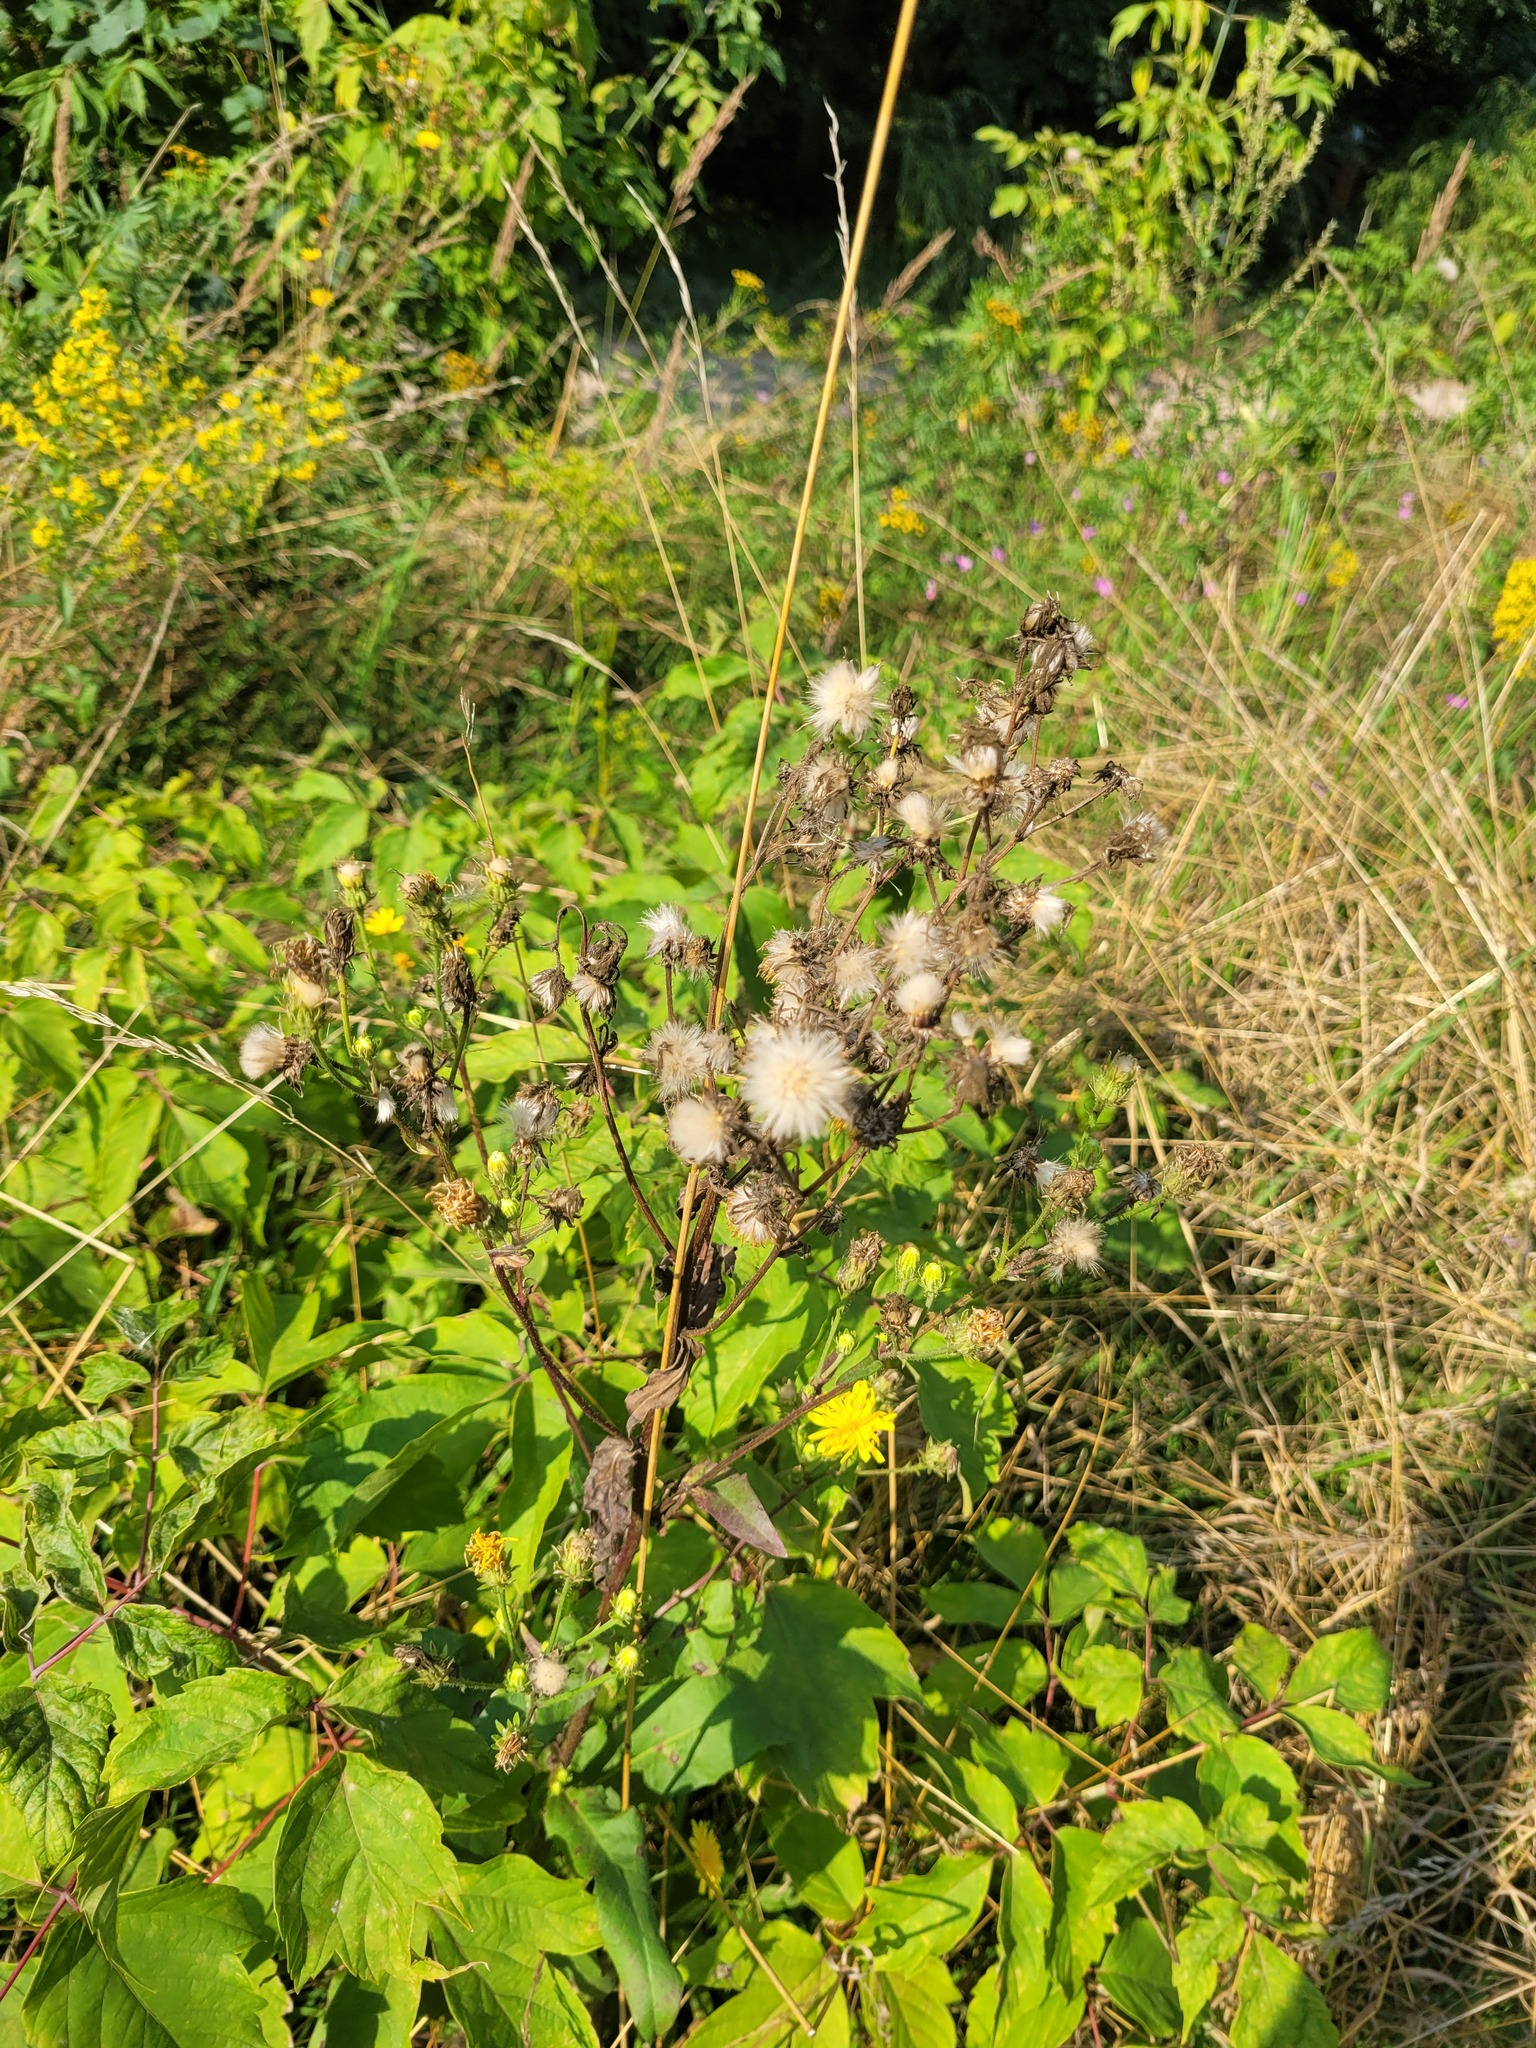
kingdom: Plantae
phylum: Tracheophyta
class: Magnoliopsida
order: Asterales
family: Asteraceae
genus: Picris
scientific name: Picris hieracioides
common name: Hawkweed oxtongue
